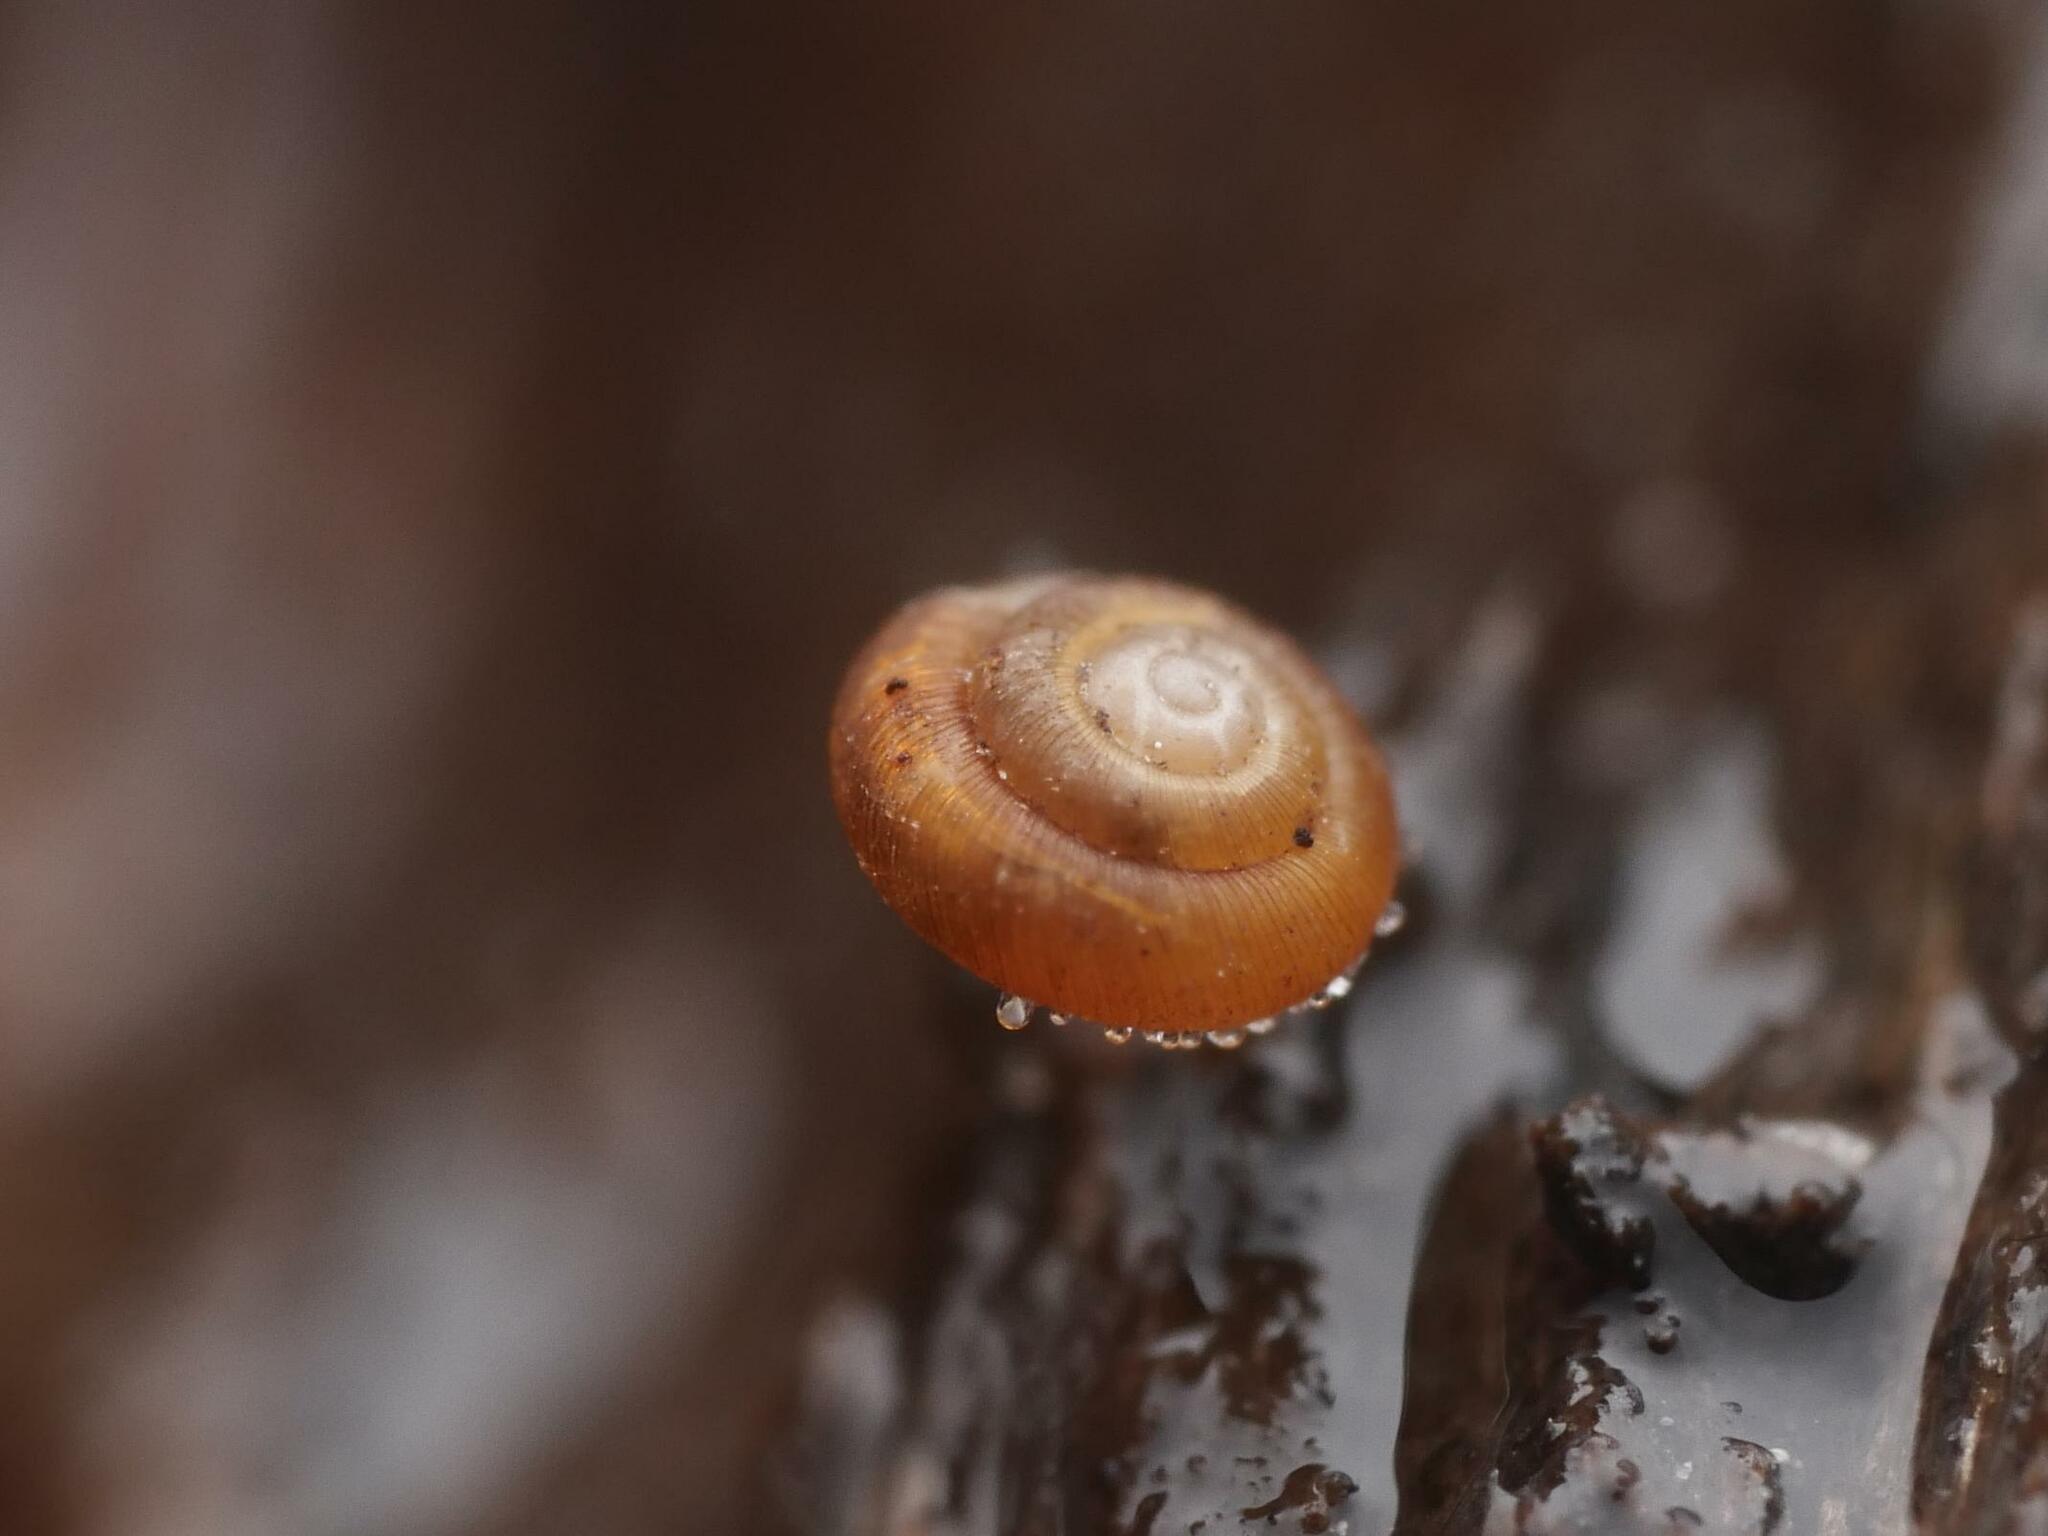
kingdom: Animalia
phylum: Mollusca
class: Gastropoda
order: Stylommatophora
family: Punctidae
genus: Punctum
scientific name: Punctum pygmaeum
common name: Dwarf snail
